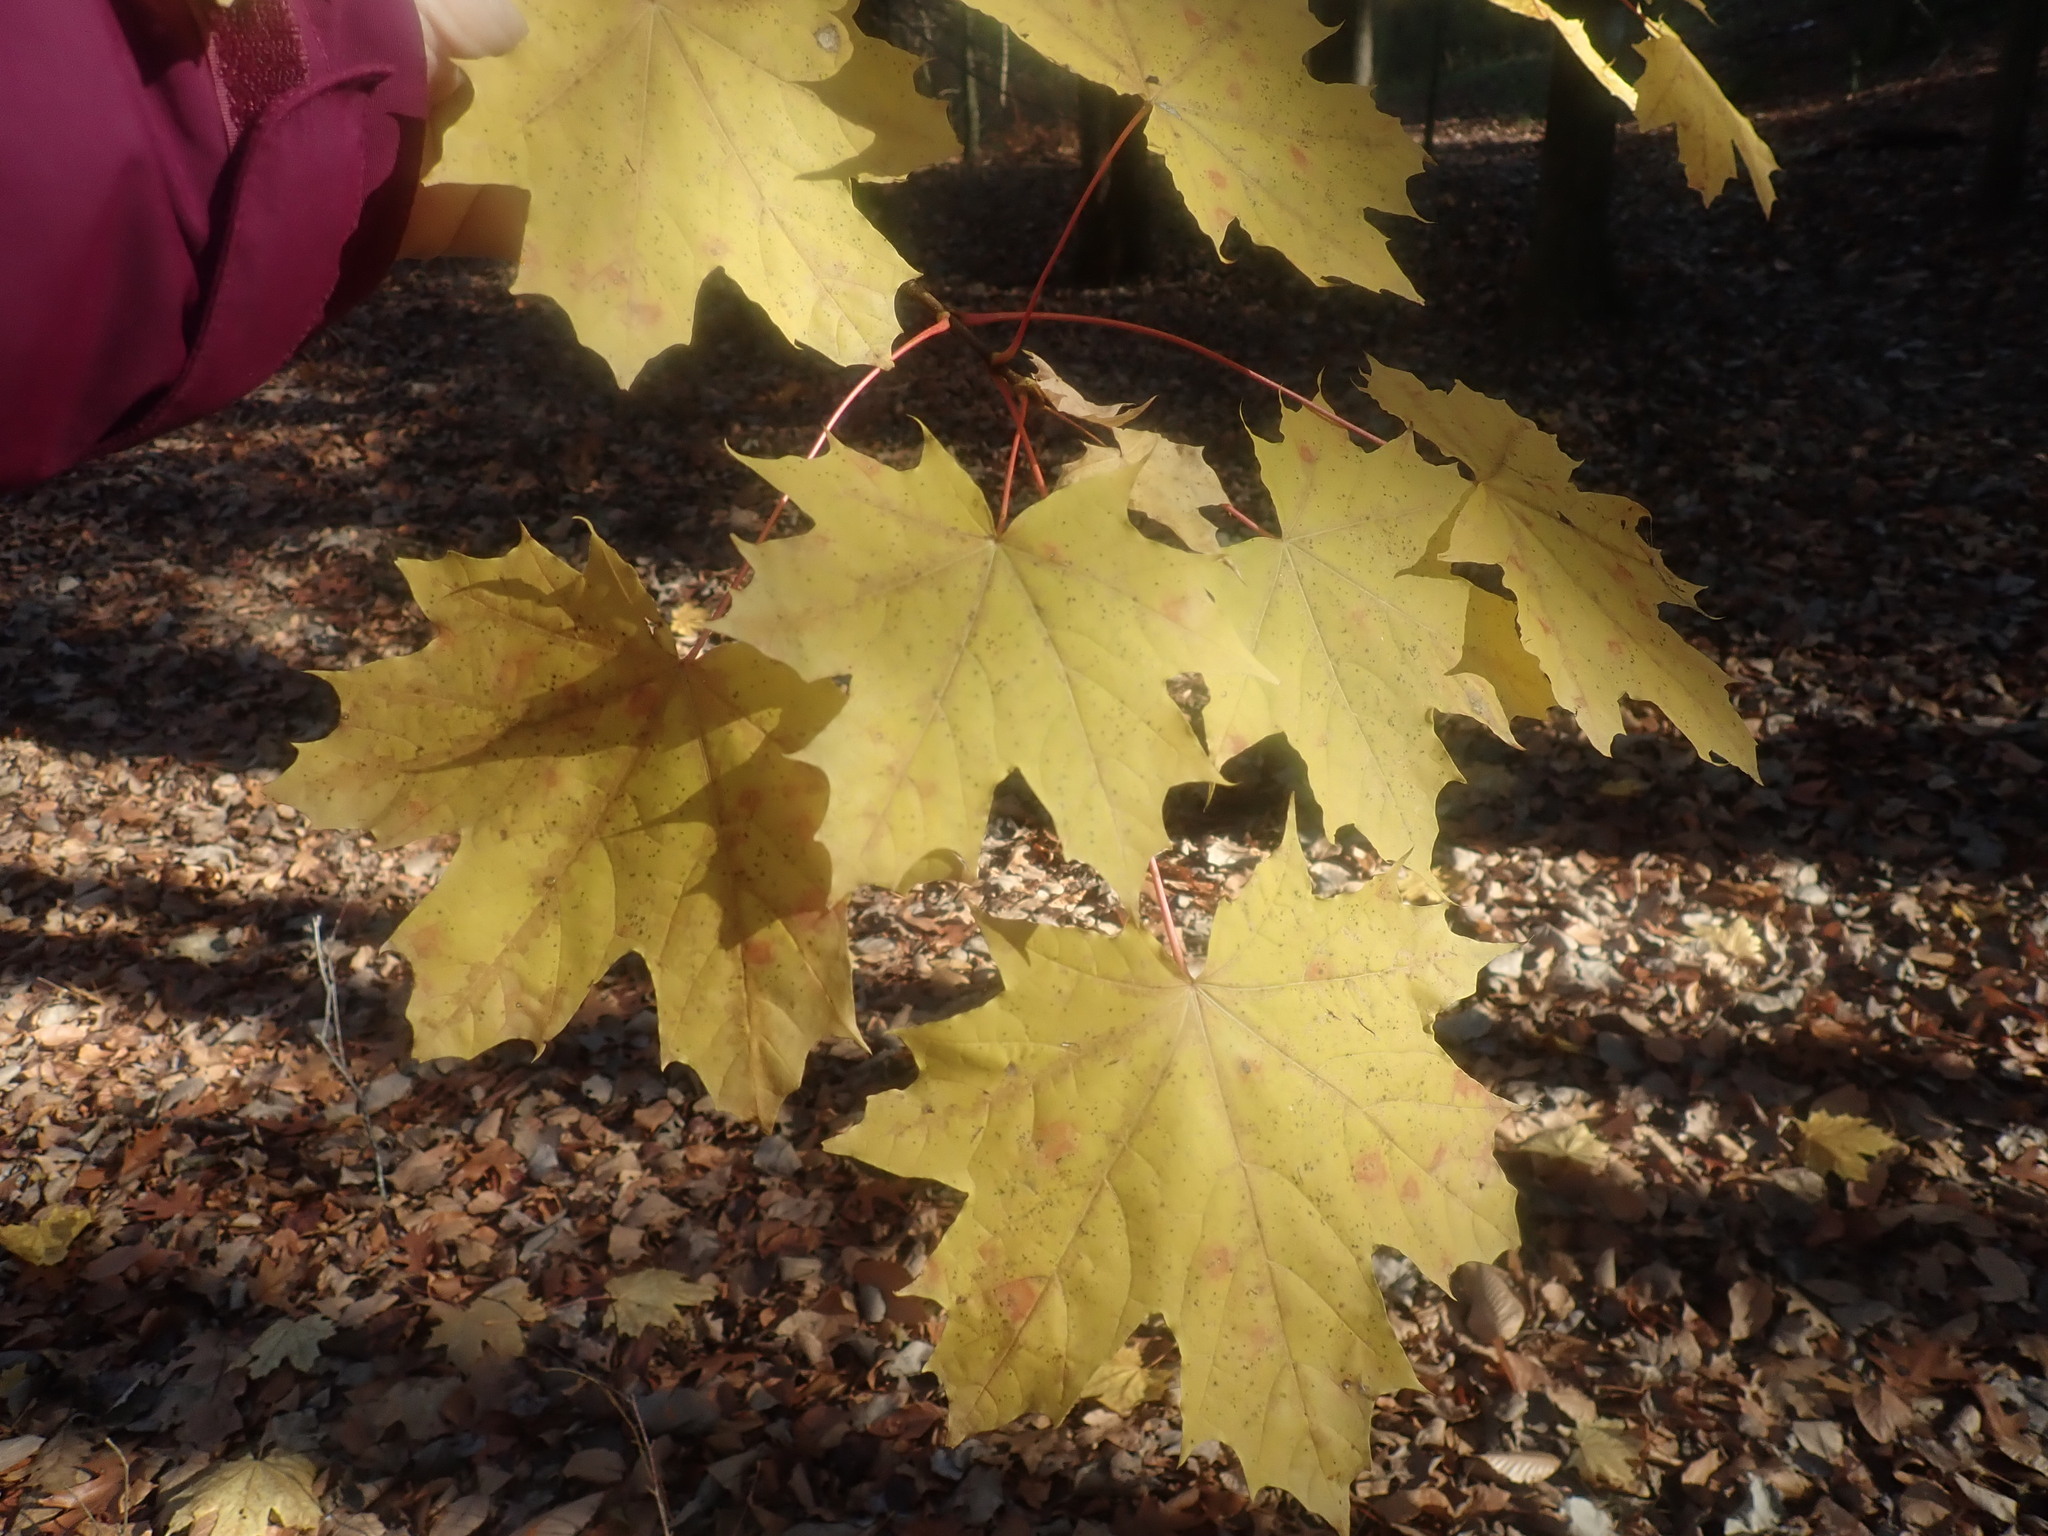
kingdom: Plantae
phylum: Tracheophyta
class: Magnoliopsida
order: Sapindales
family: Sapindaceae
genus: Acer
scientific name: Acer platanoides
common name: Norway maple
